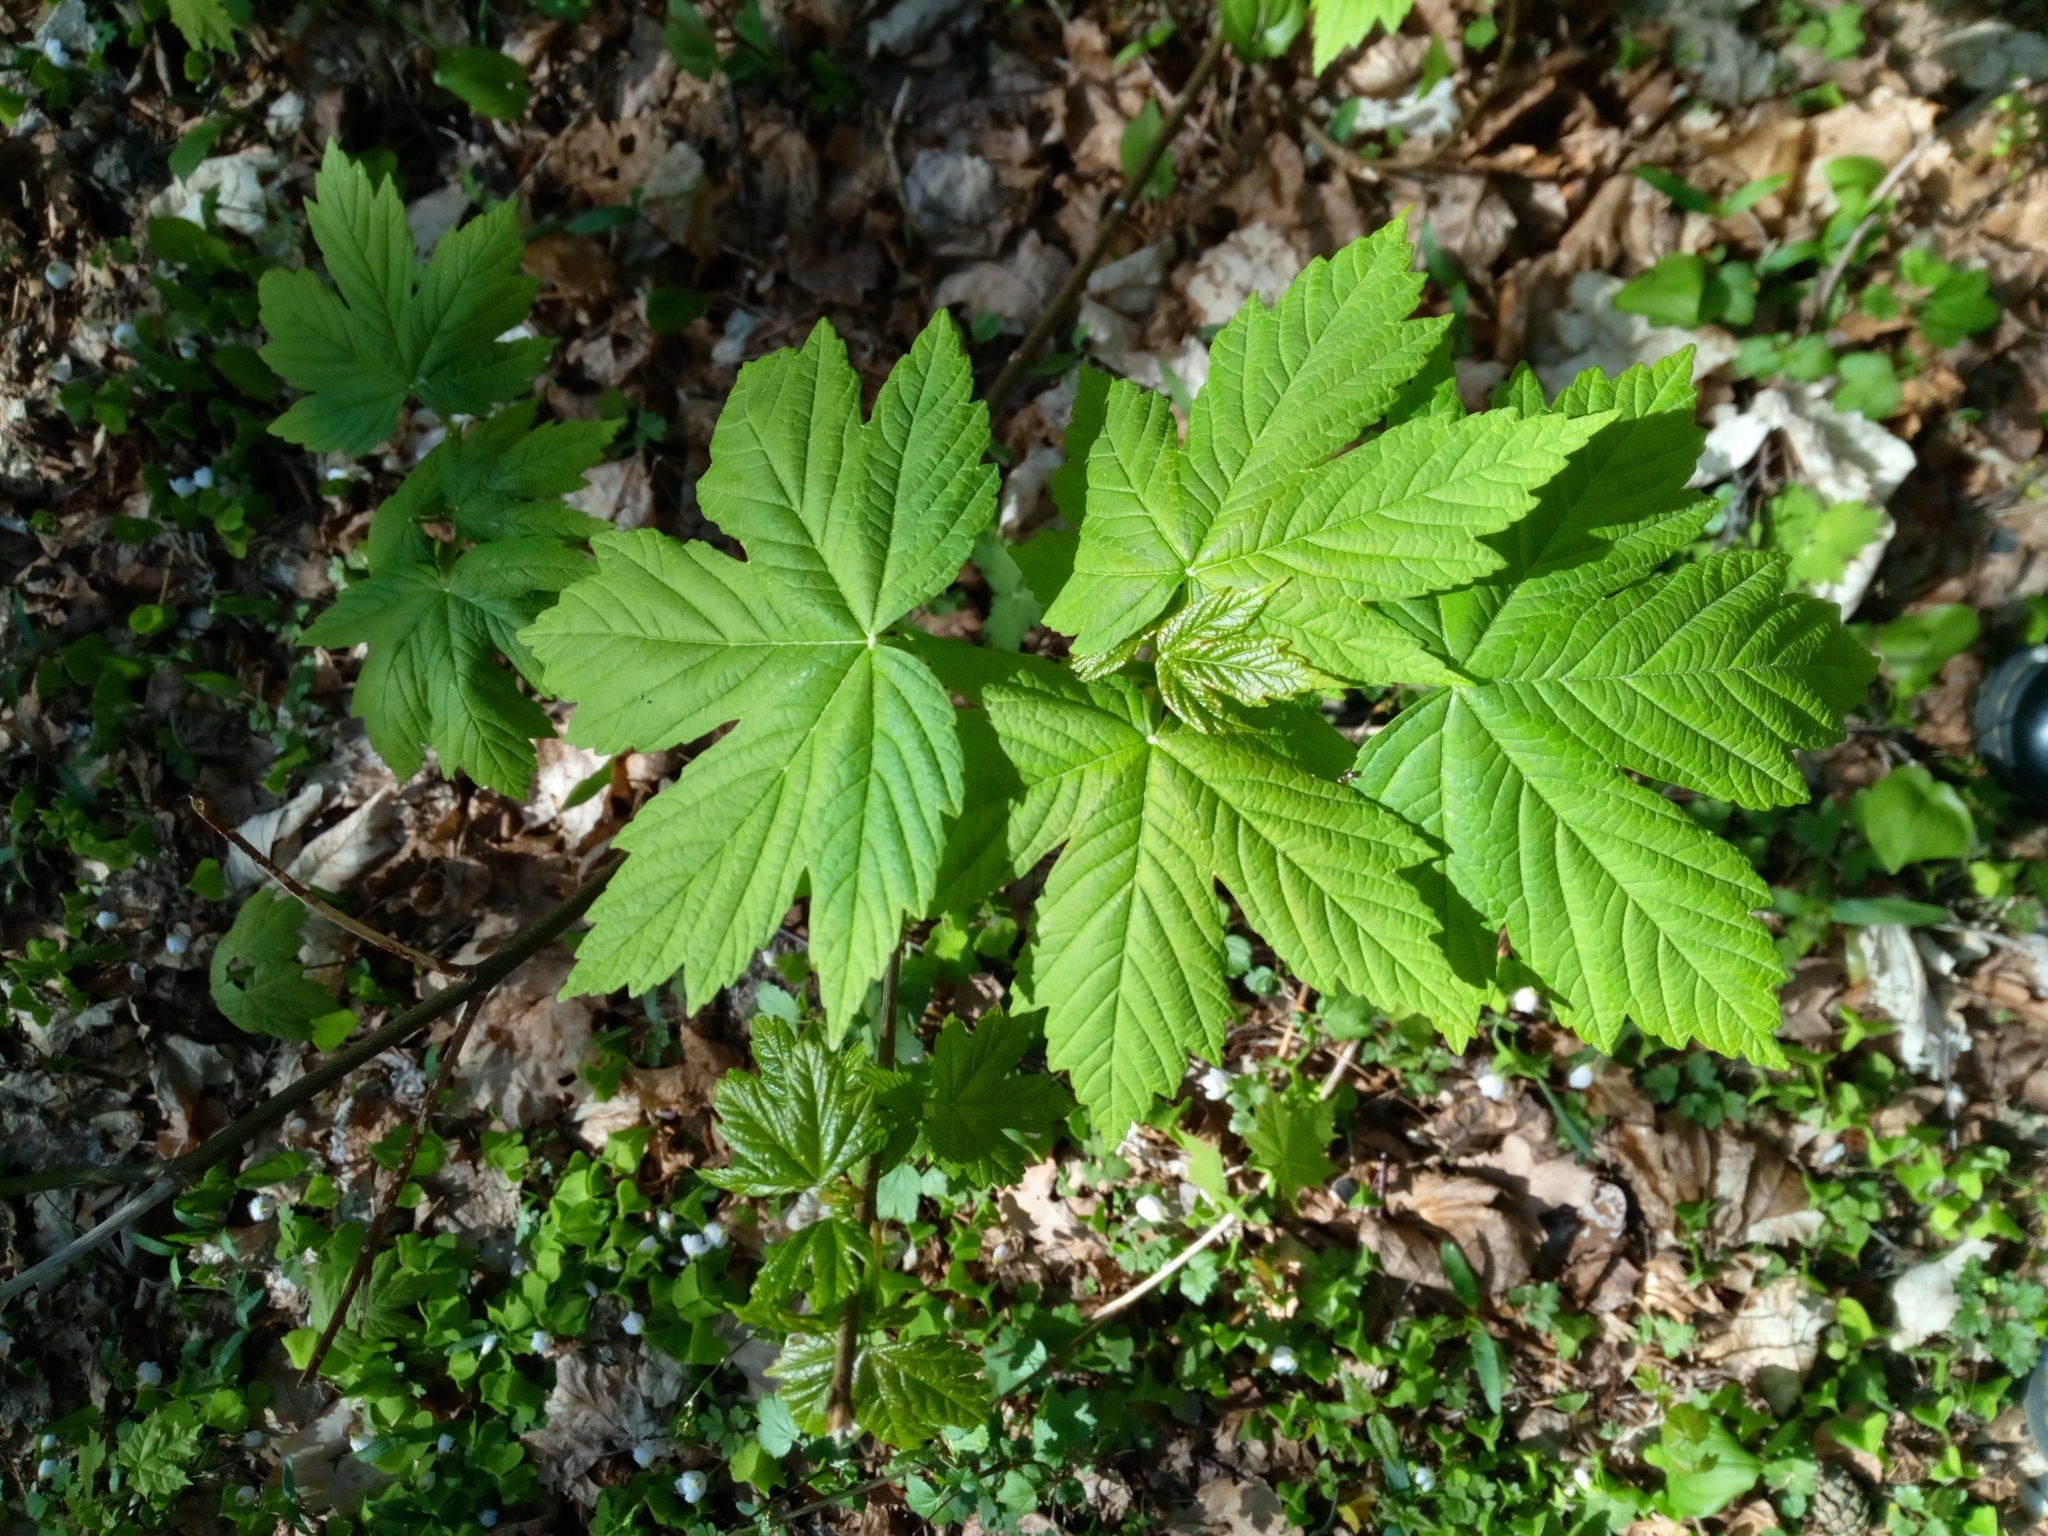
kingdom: Plantae
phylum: Tracheophyta
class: Magnoliopsida
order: Sapindales
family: Sapindaceae
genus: Acer
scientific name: Acer pseudoplatanus
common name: Sycamore
